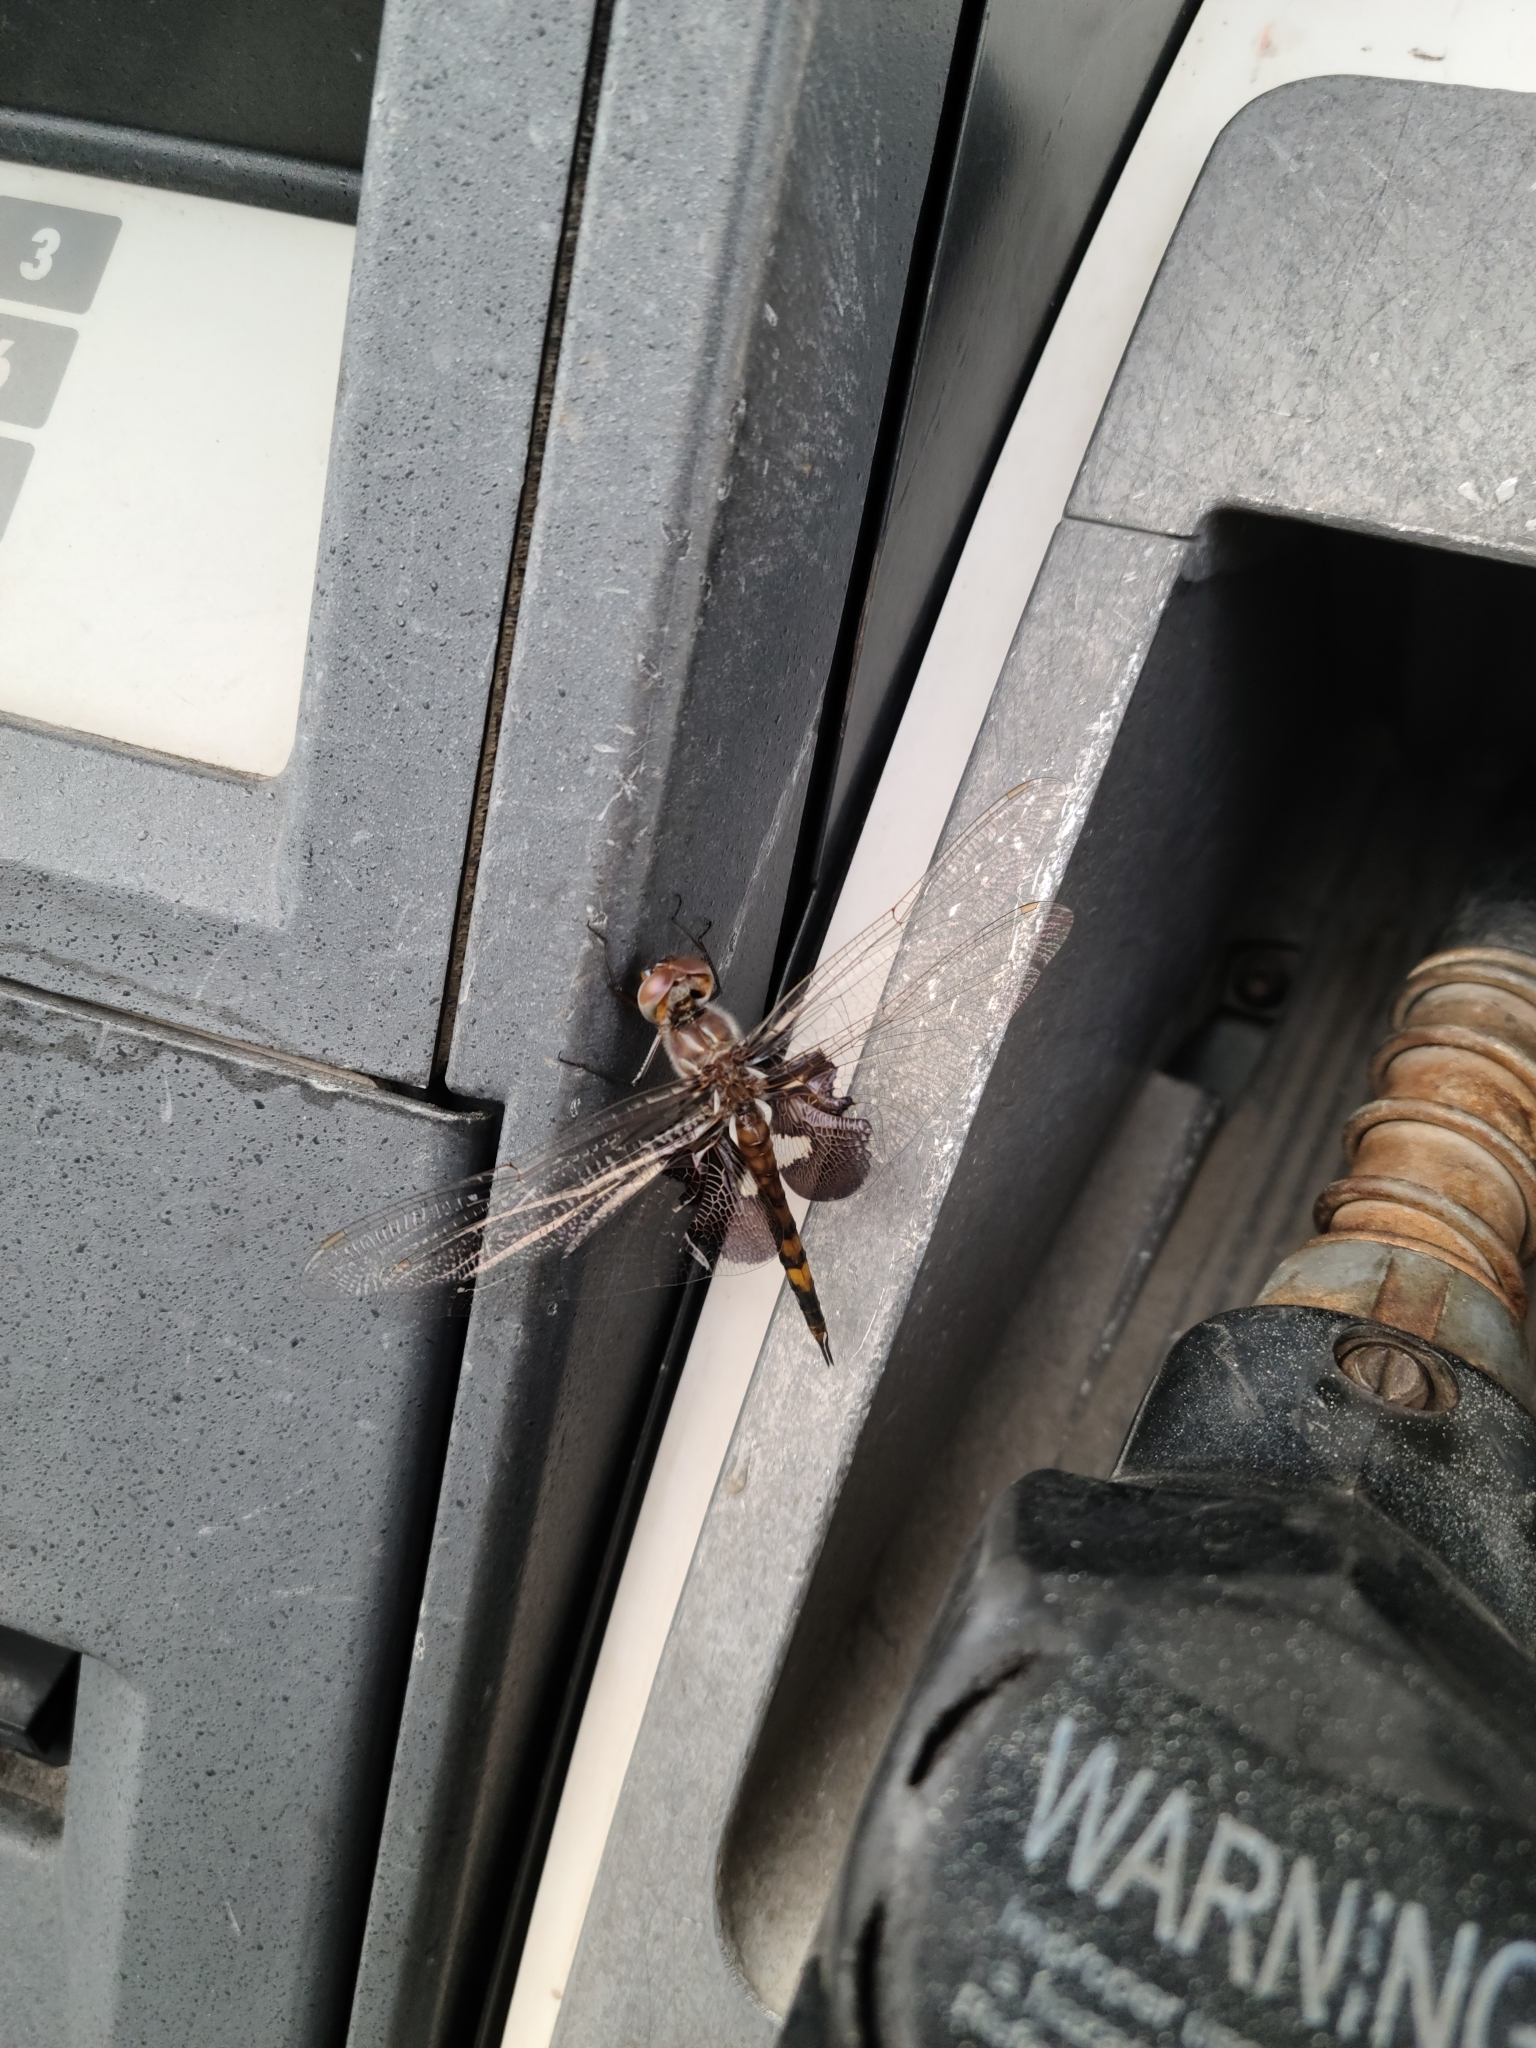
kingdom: Animalia
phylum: Arthropoda
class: Insecta
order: Odonata
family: Libellulidae
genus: Tramea
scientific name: Tramea lacerata
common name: Black saddlebags
